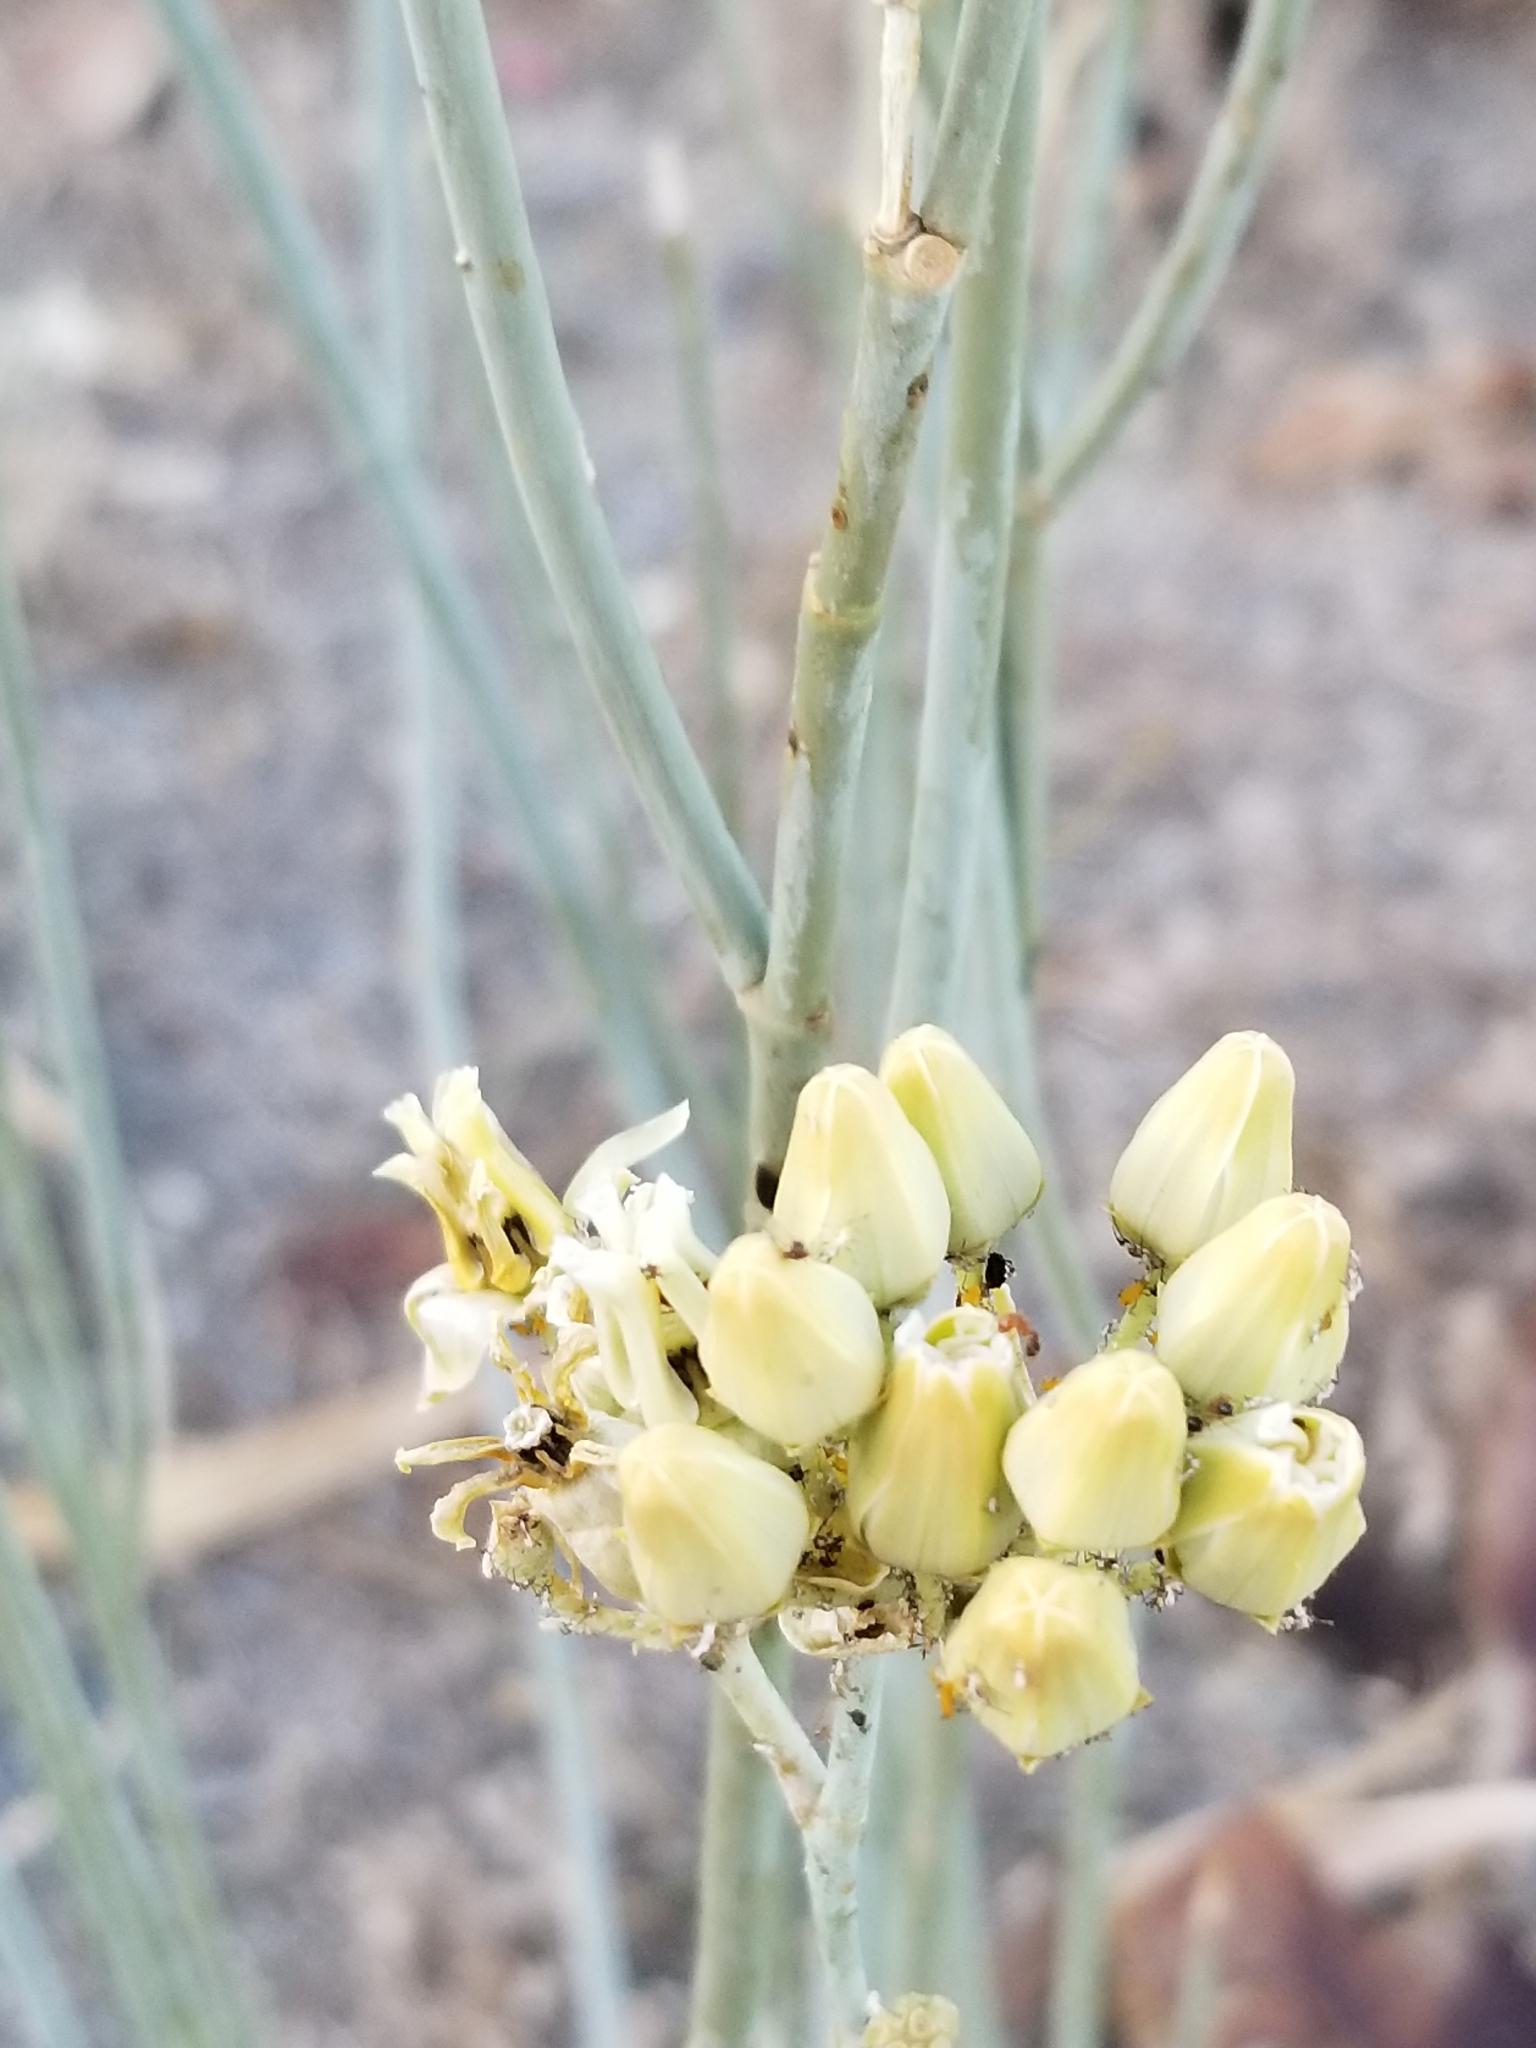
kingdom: Plantae
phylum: Tracheophyta
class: Magnoliopsida
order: Gentianales
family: Apocynaceae
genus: Asclepias
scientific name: Asclepias subulata
